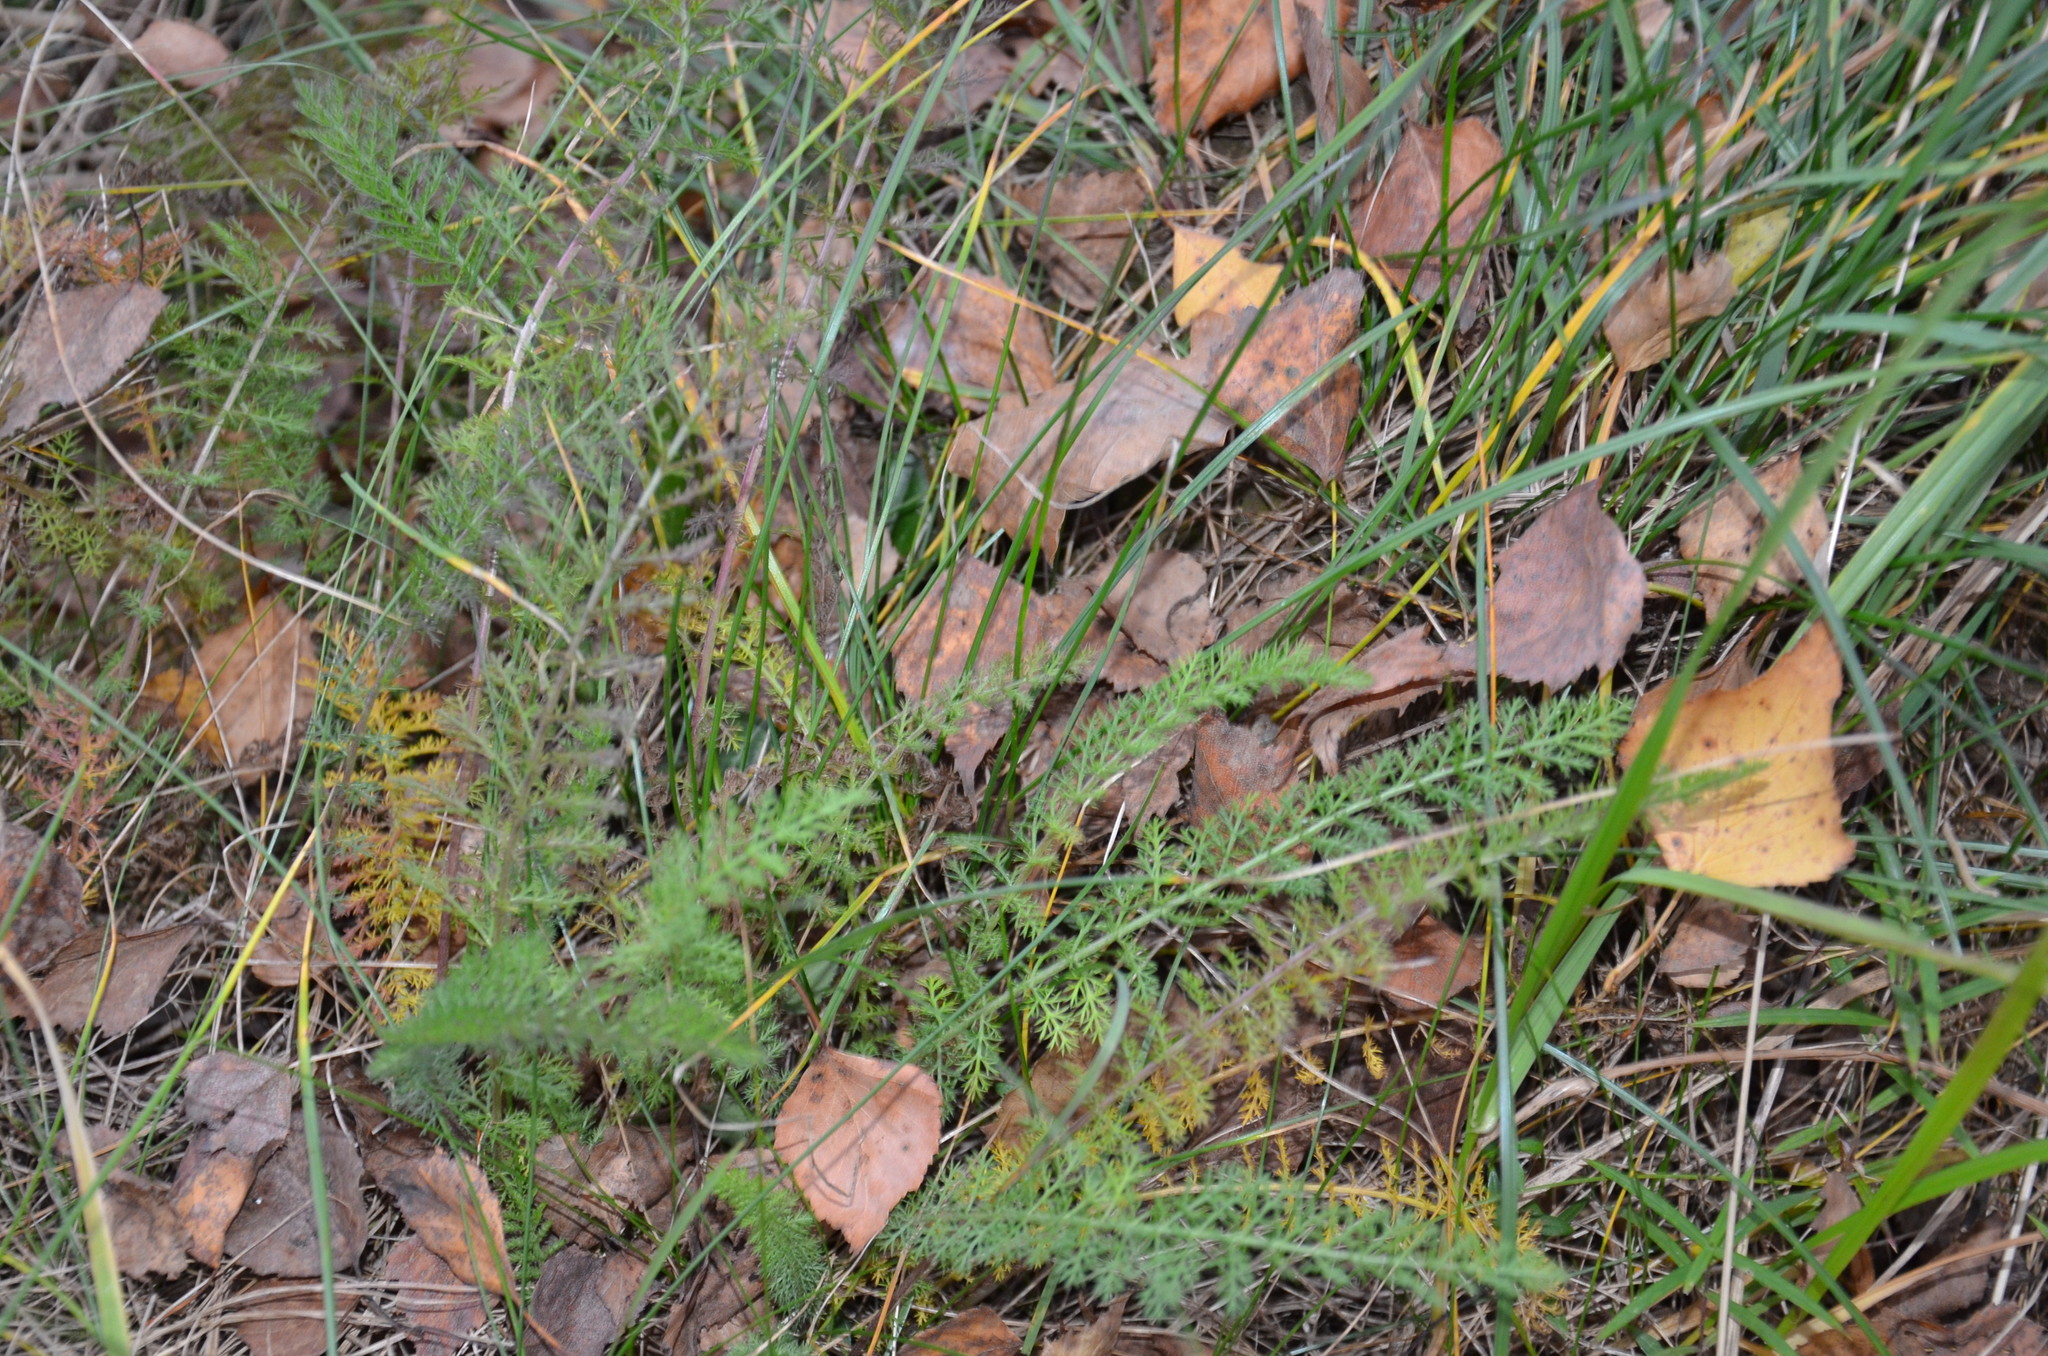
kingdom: Plantae
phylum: Tracheophyta
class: Magnoliopsida
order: Asterales
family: Asteraceae
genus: Achillea
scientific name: Achillea millefolium
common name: Yarrow
